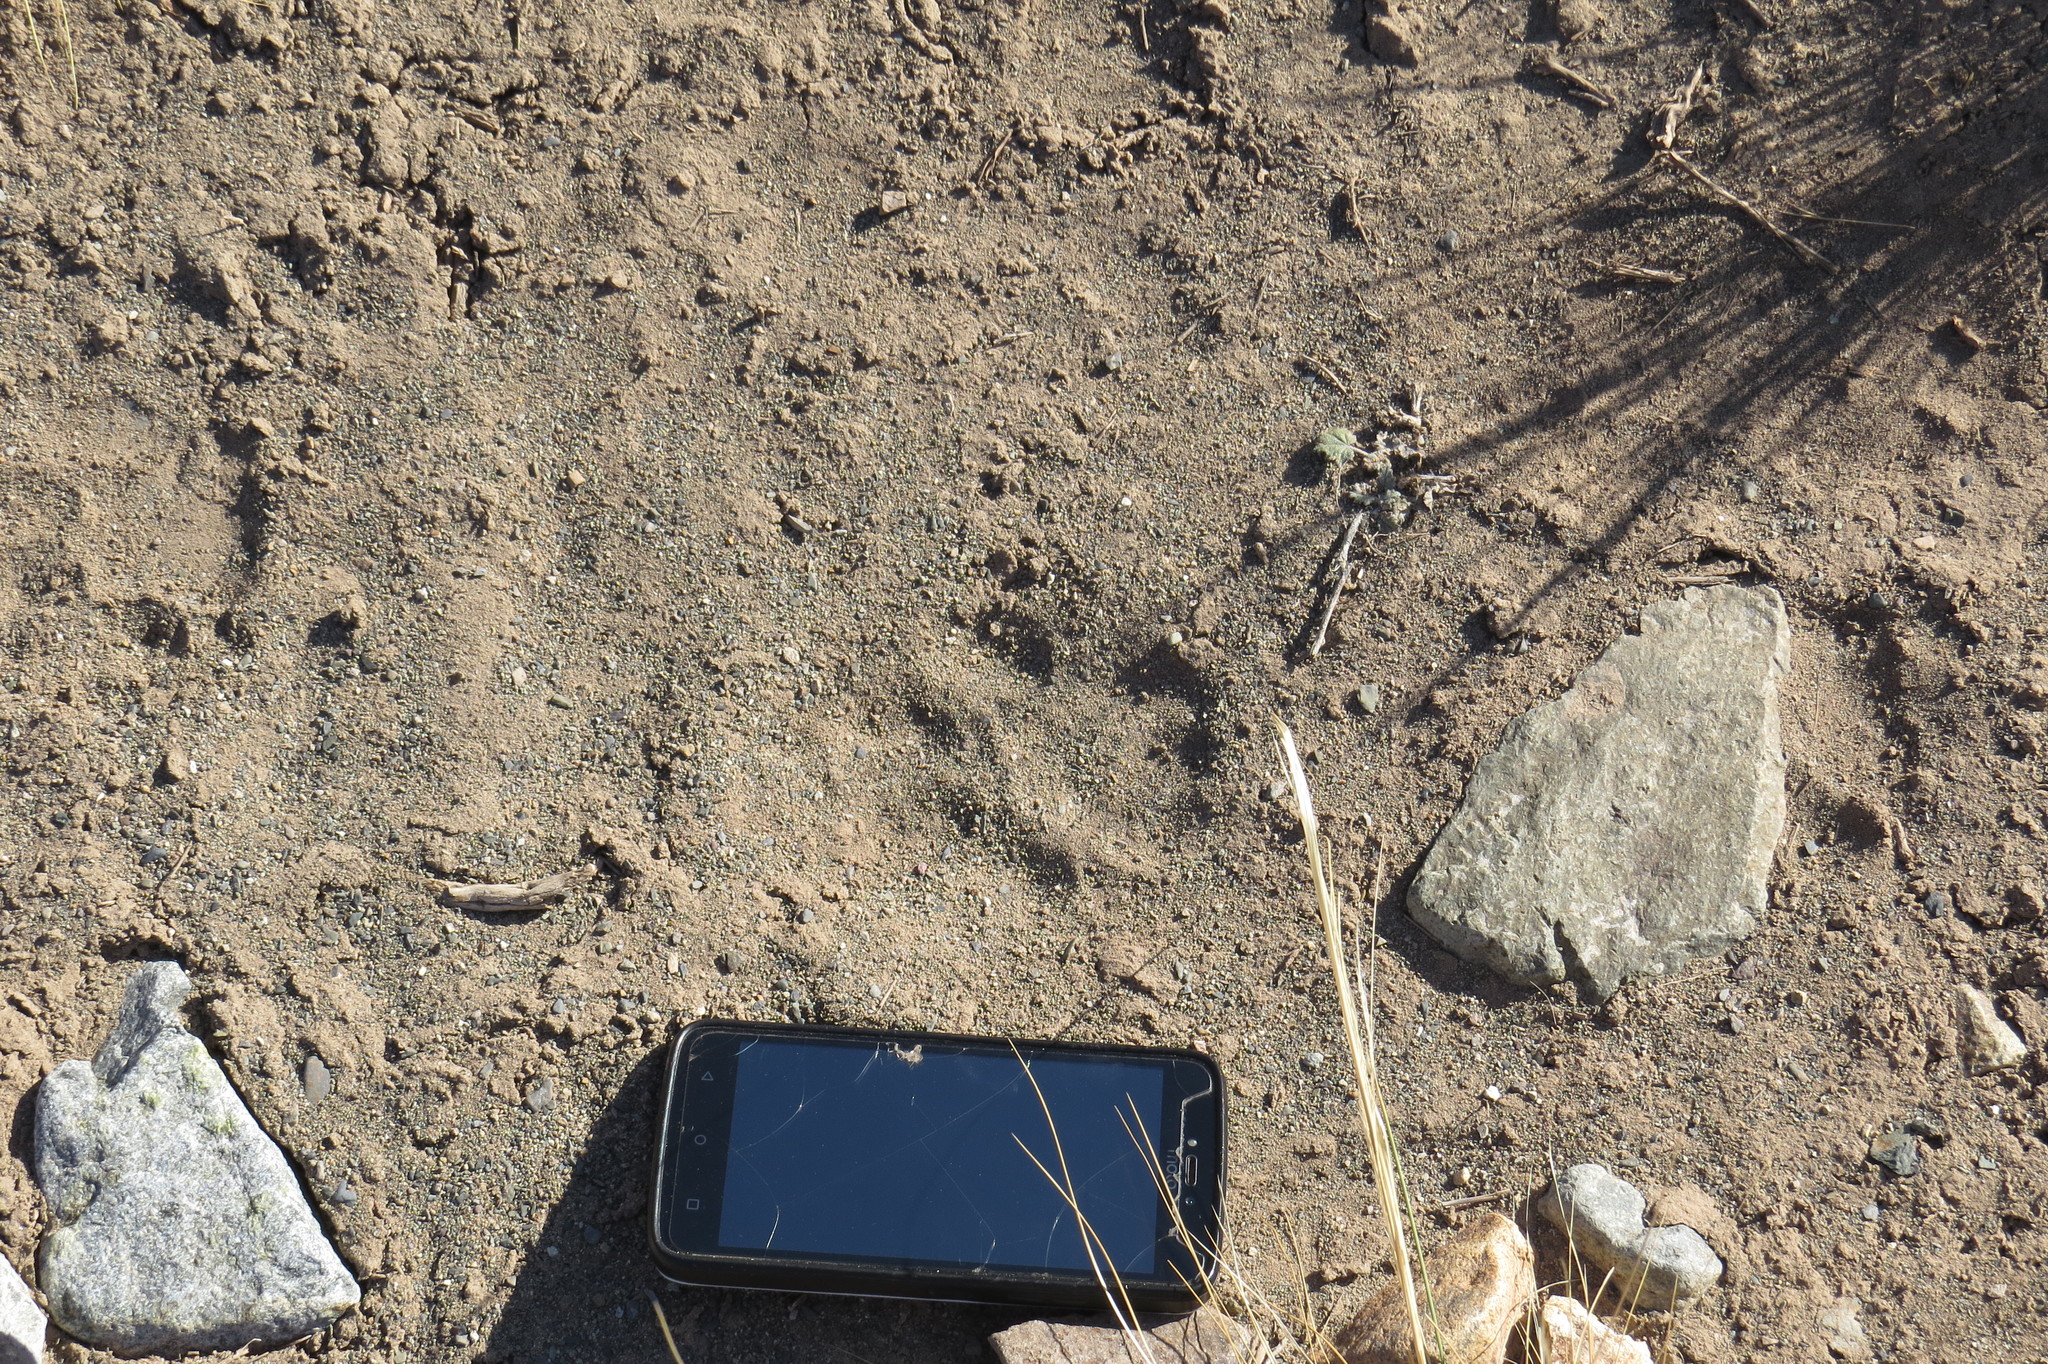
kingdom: Animalia
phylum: Chordata
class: Mammalia
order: Carnivora
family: Felidae
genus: Puma
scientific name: Puma concolor
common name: Puma
